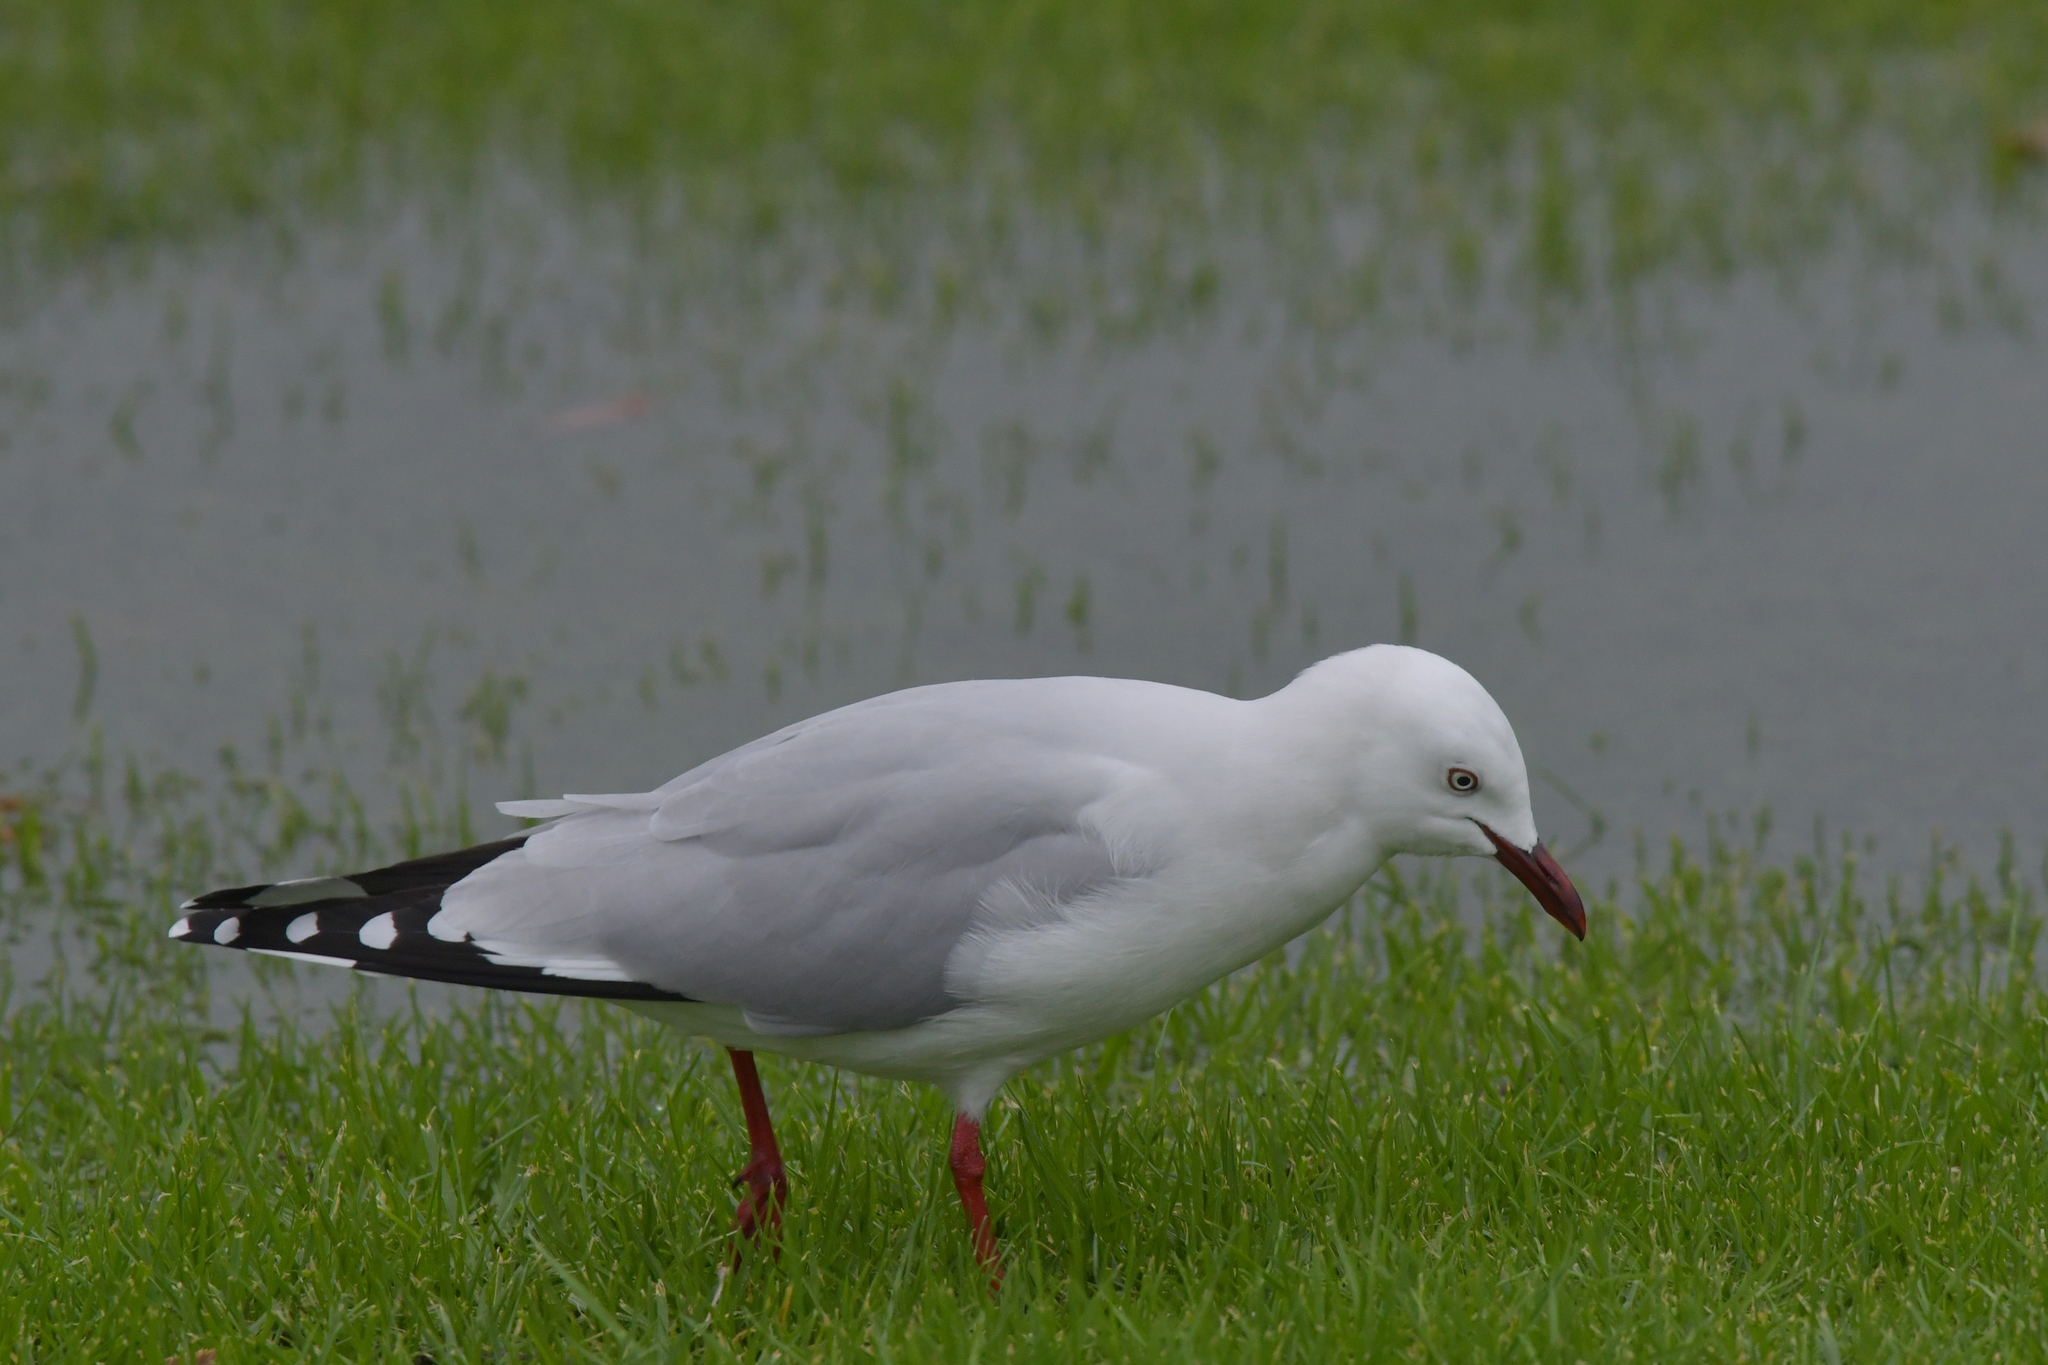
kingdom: Animalia
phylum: Chordata
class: Aves
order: Charadriiformes
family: Laridae
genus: Chroicocephalus
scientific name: Chroicocephalus novaehollandiae
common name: Silver gull
